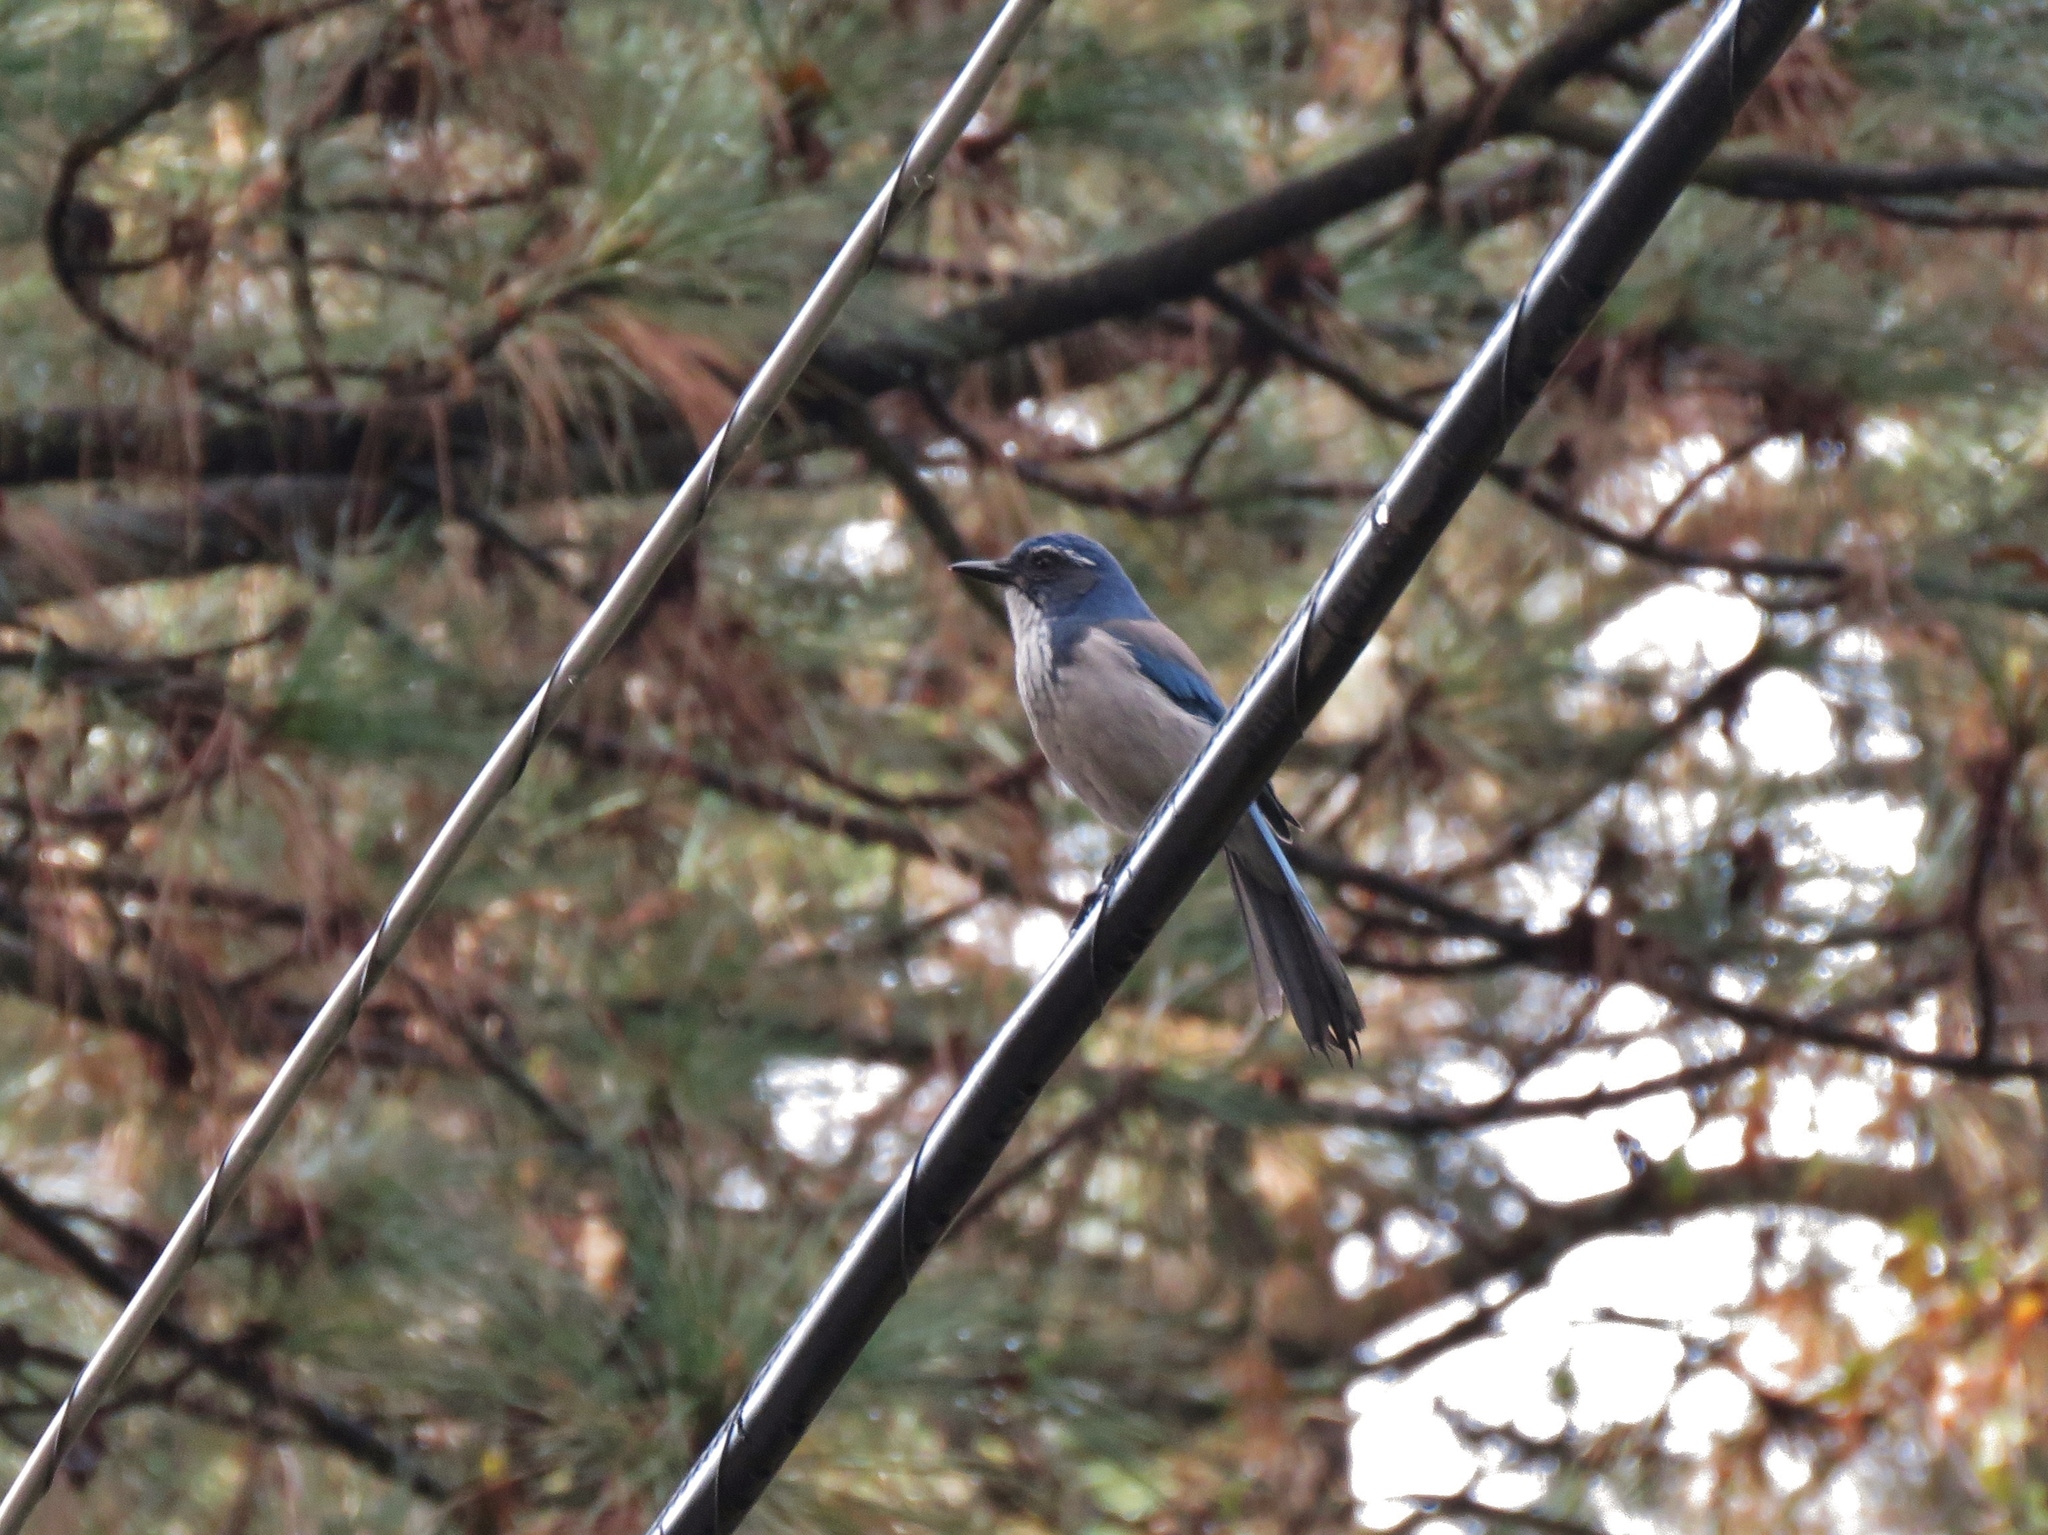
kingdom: Animalia
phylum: Chordata
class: Aves
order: Passeriformes
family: Corvidae
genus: Aphelocoma
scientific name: Aphelocoma californica
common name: California scrub-jay
